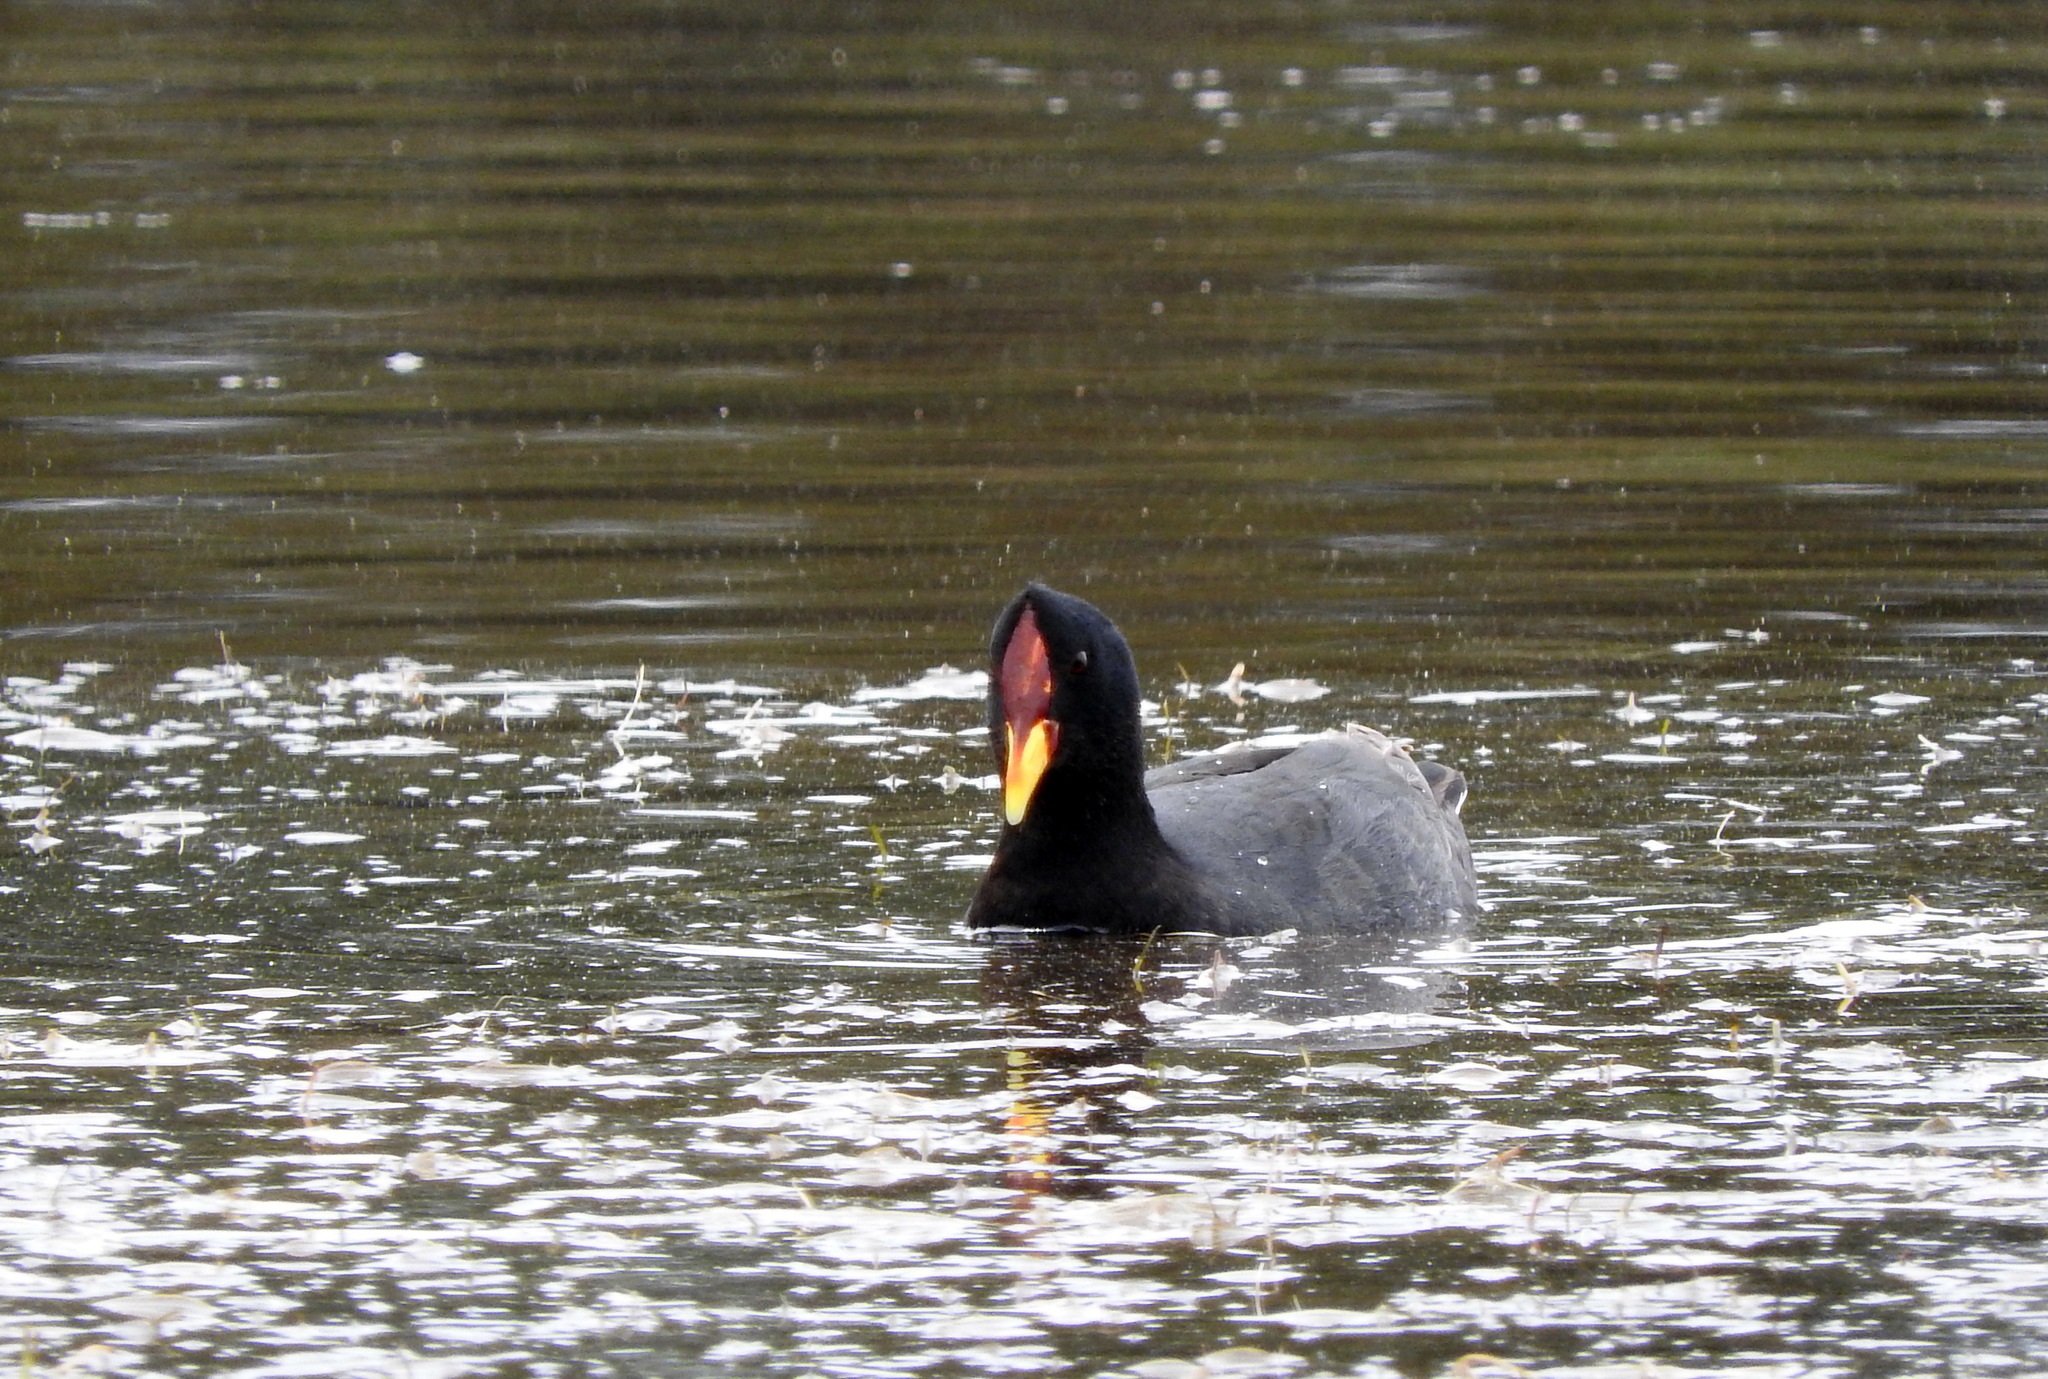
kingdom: Animalia
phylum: Chordata
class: Aves
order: Gruiformes
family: Rallidae
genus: Fulica
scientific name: Fulica rufifrons
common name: Red-fronted coot
